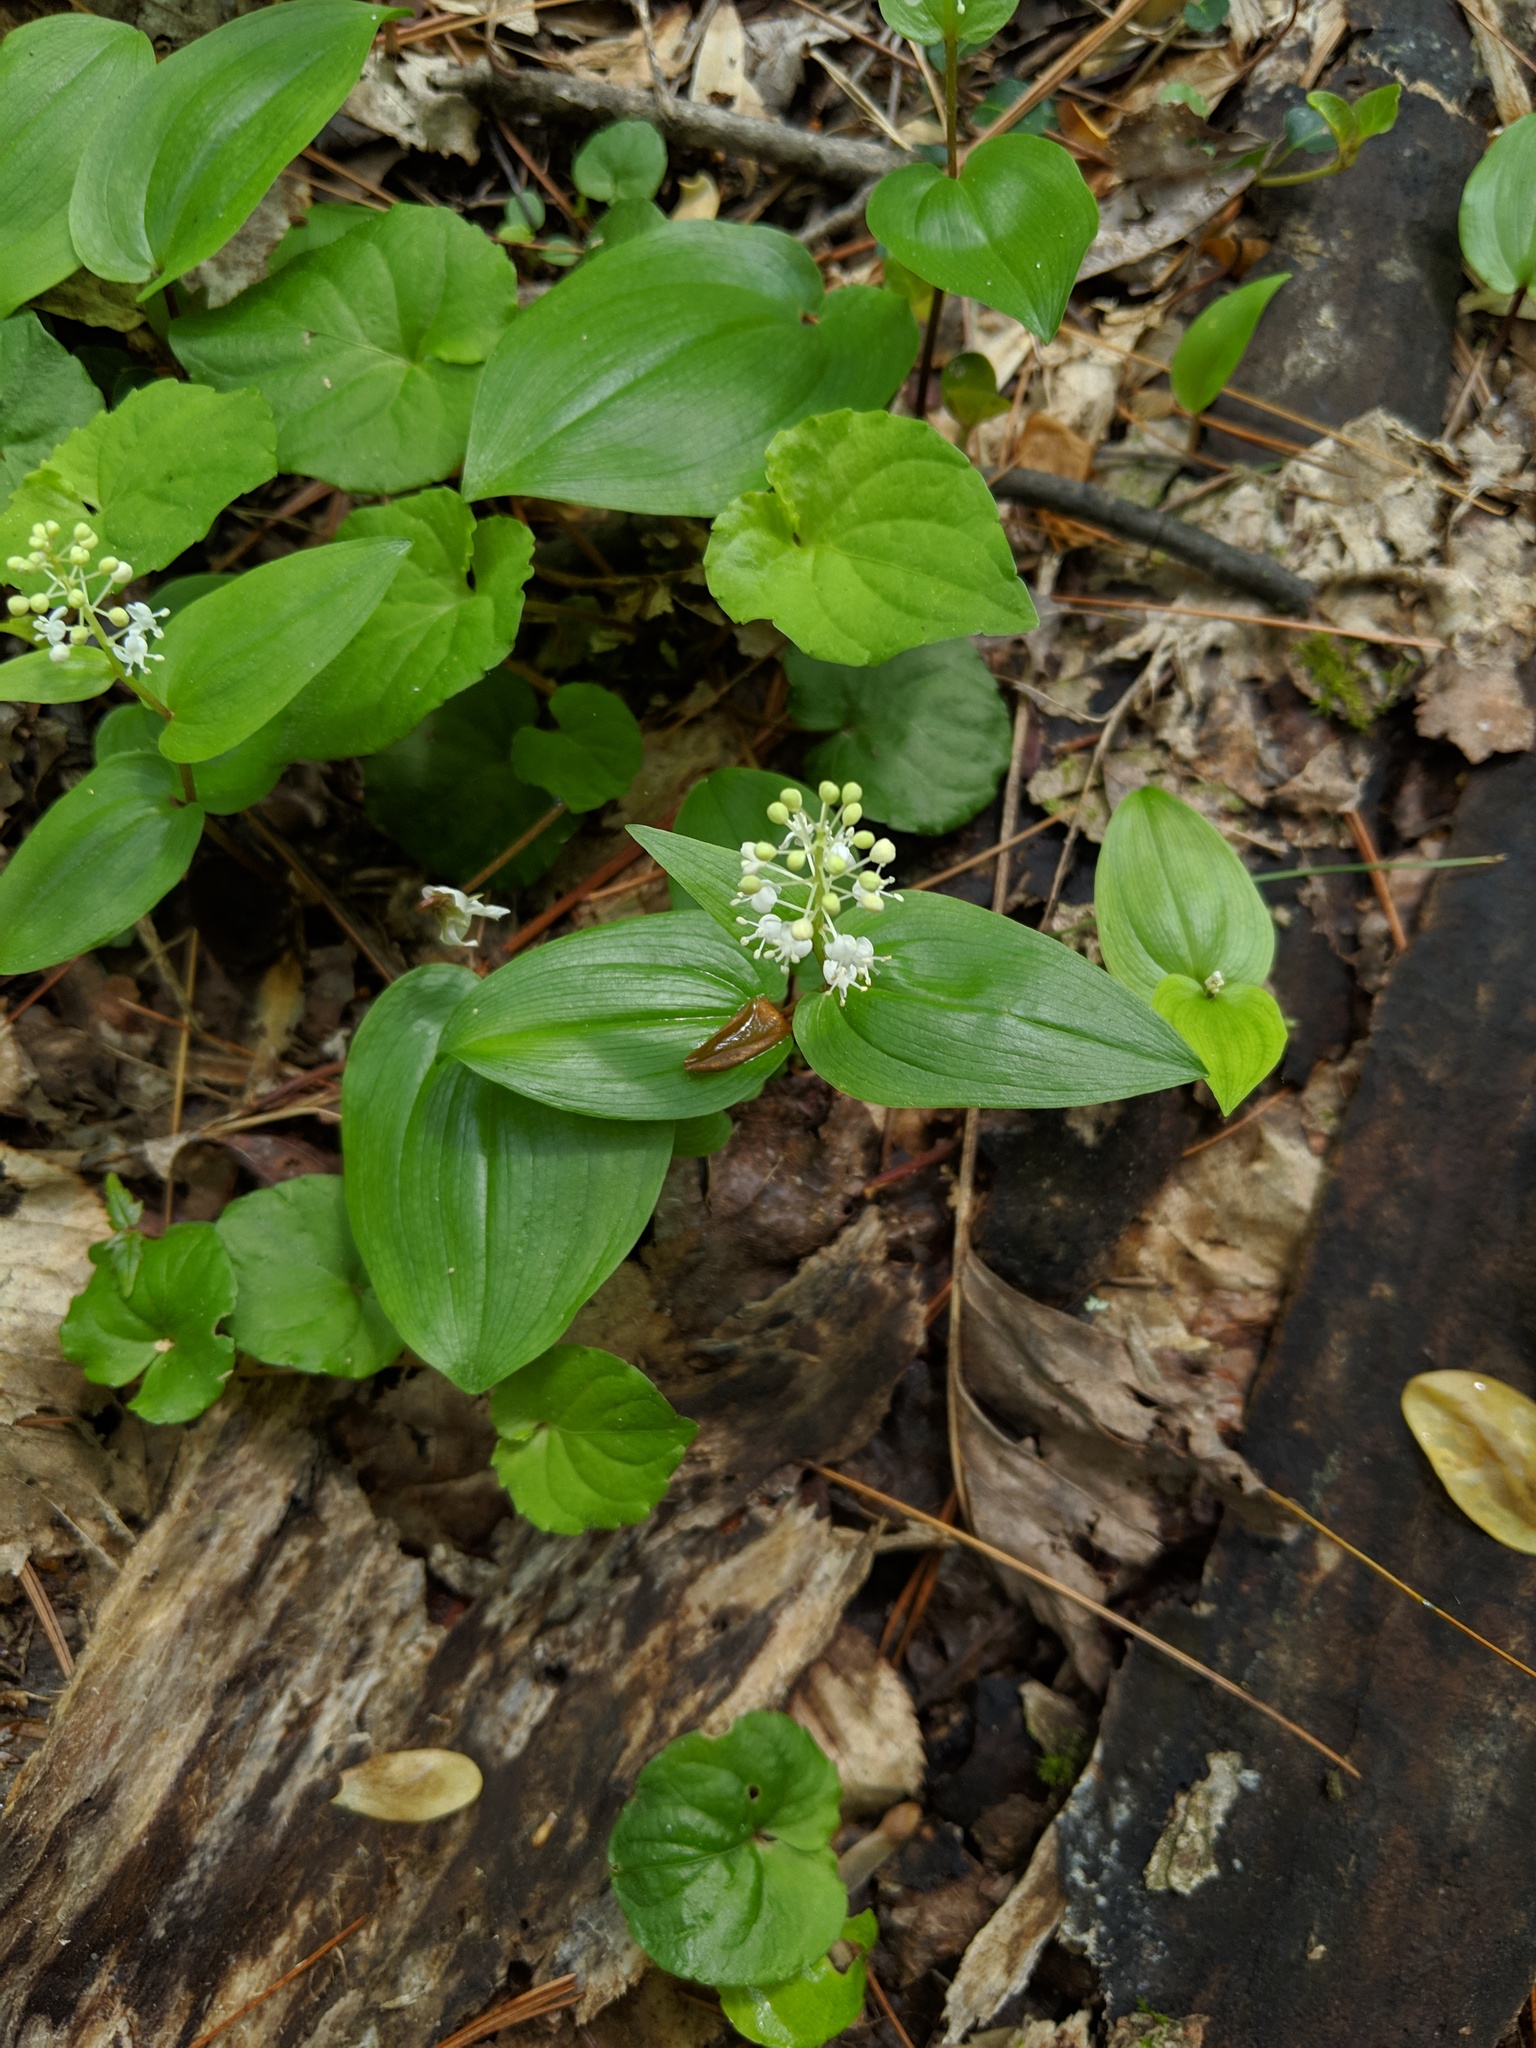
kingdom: Plantae
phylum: Tracheophyta
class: Liliopsida
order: Asparagales
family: Asparagaceae
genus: Maianthemum
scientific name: Maianthemum canadense
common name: False lily-of-the-valley
